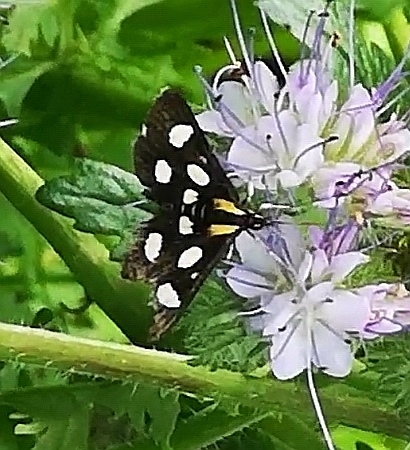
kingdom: Animalia
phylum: Arthropoda
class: Insecta
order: Lepidoptera
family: Crambidae
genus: Anania
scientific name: Anania funebris
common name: White-spotted sable moth
